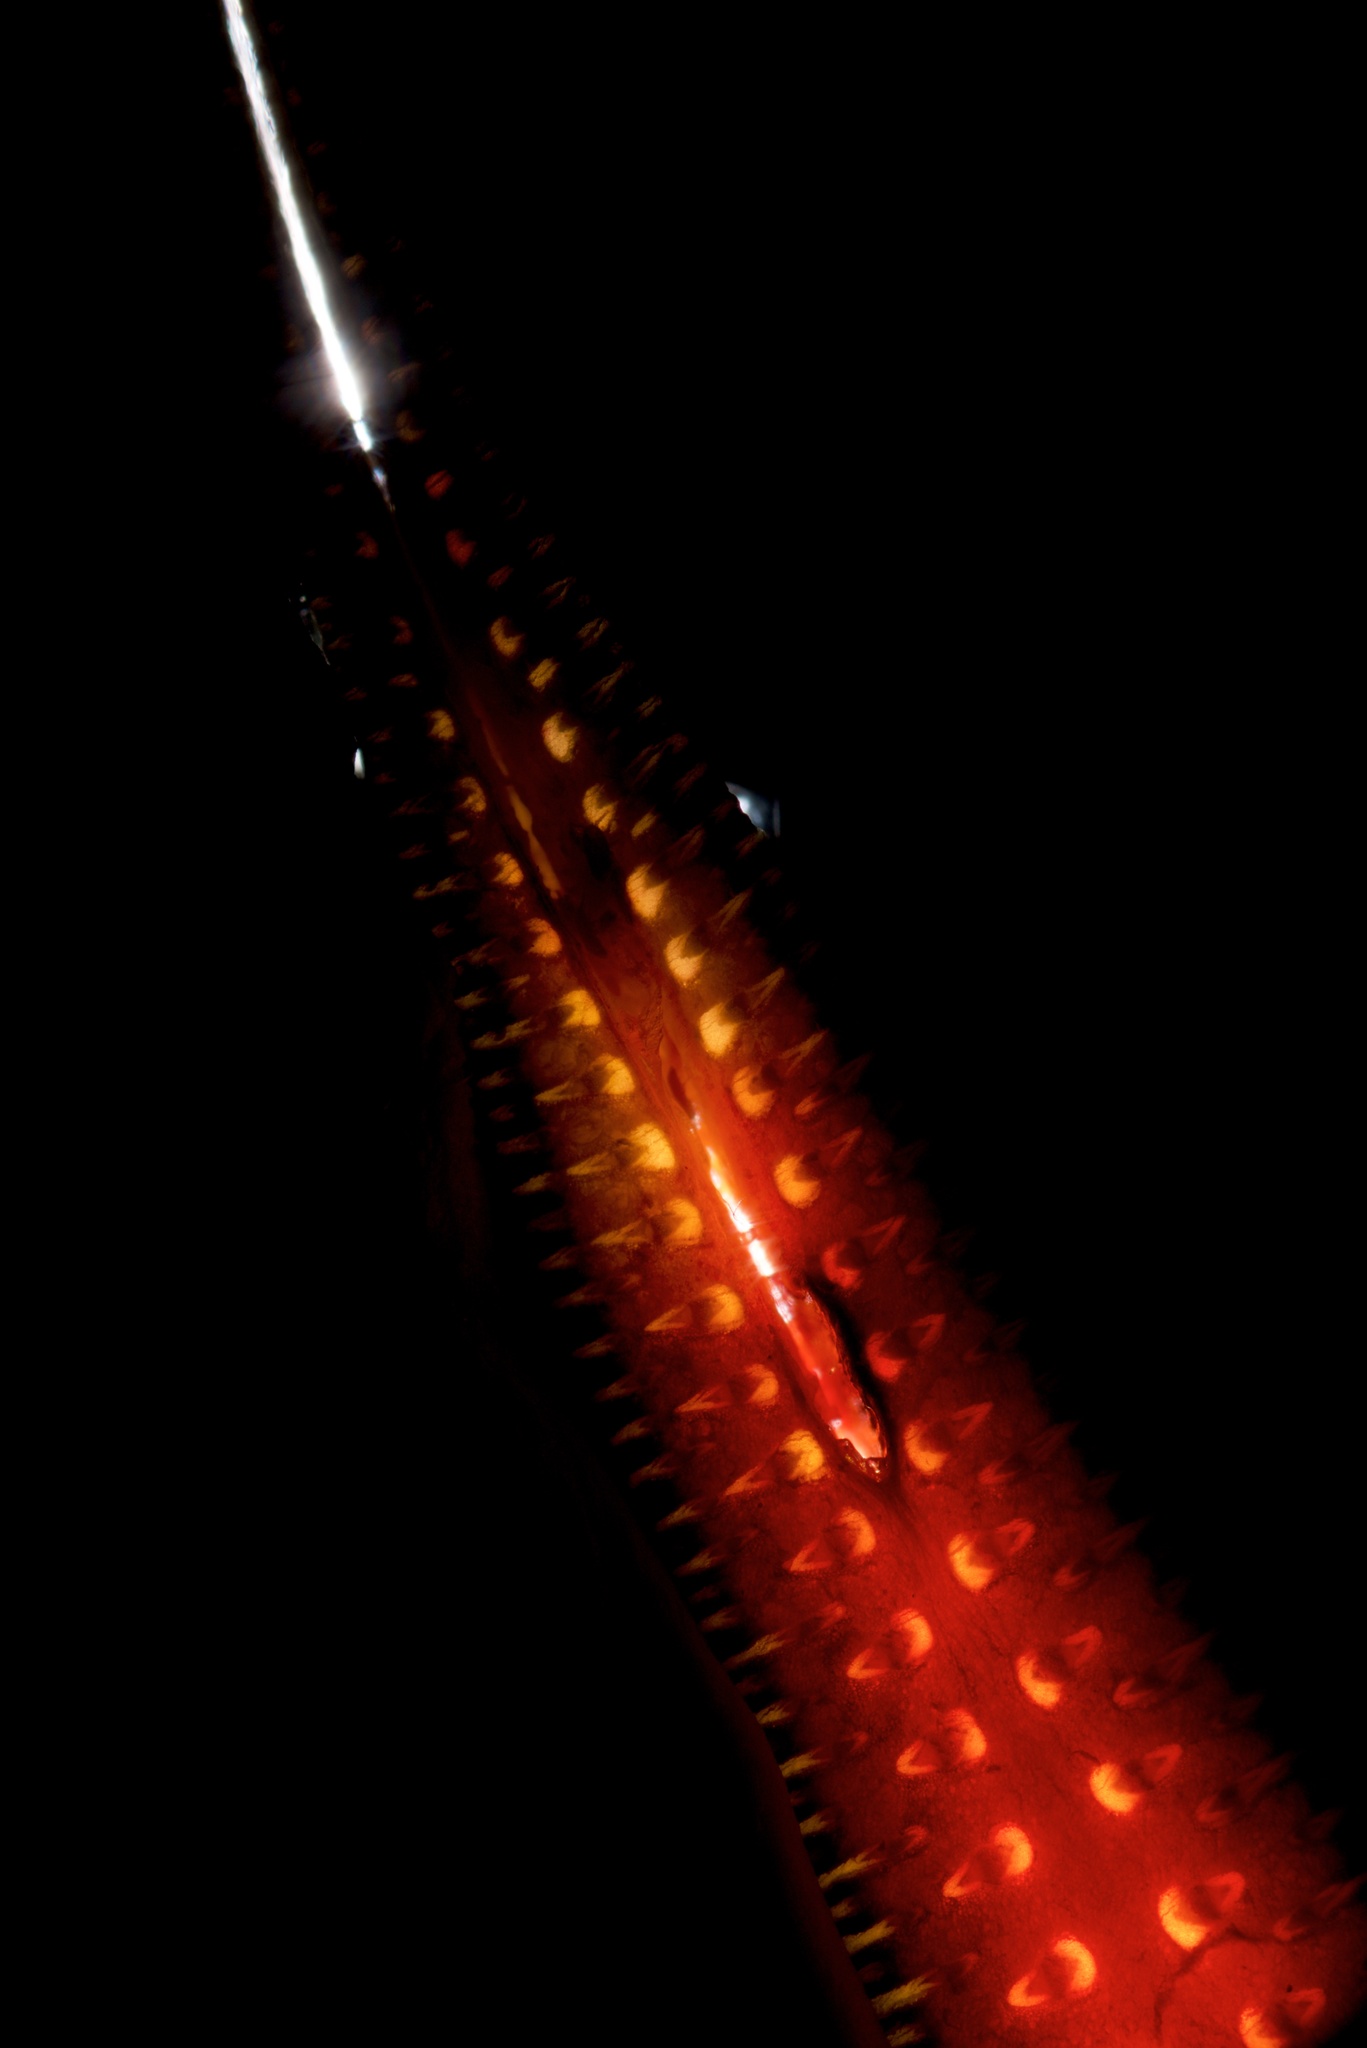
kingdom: Plantae
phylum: Tracheophyta
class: Liliopsida
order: Asparagales
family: Asphodelaceae
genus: Phormium
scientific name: Phormium tenax
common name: New zealand flax
